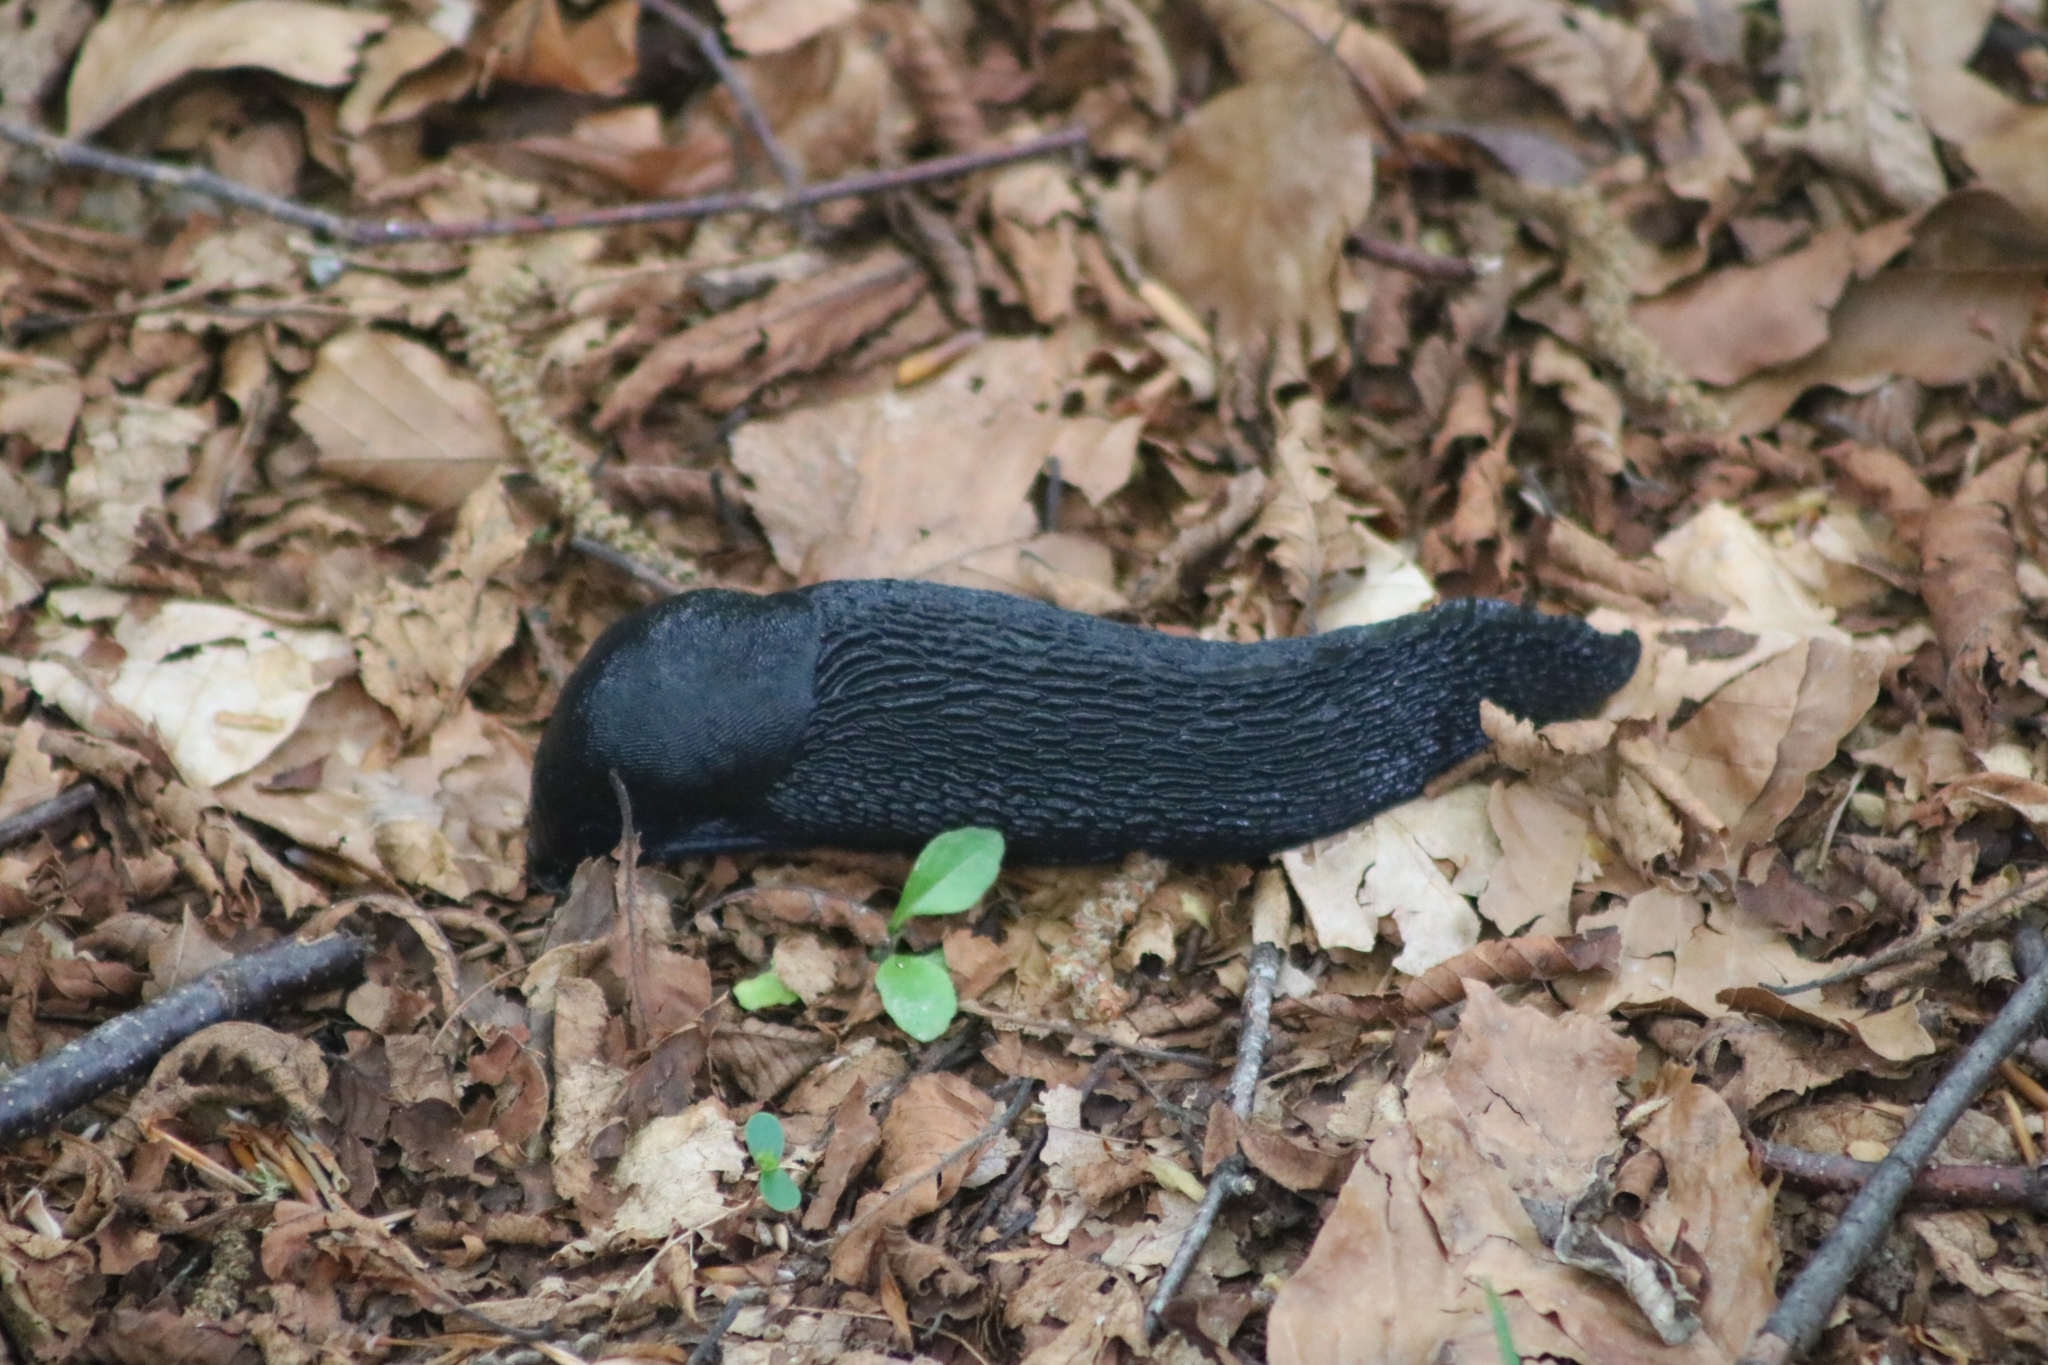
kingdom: Animalia
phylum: Mollusca
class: Gastropoda
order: Stylommatophora
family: Limacidae
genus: Limax
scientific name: Limax cinereoniger
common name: Ash-black slug
